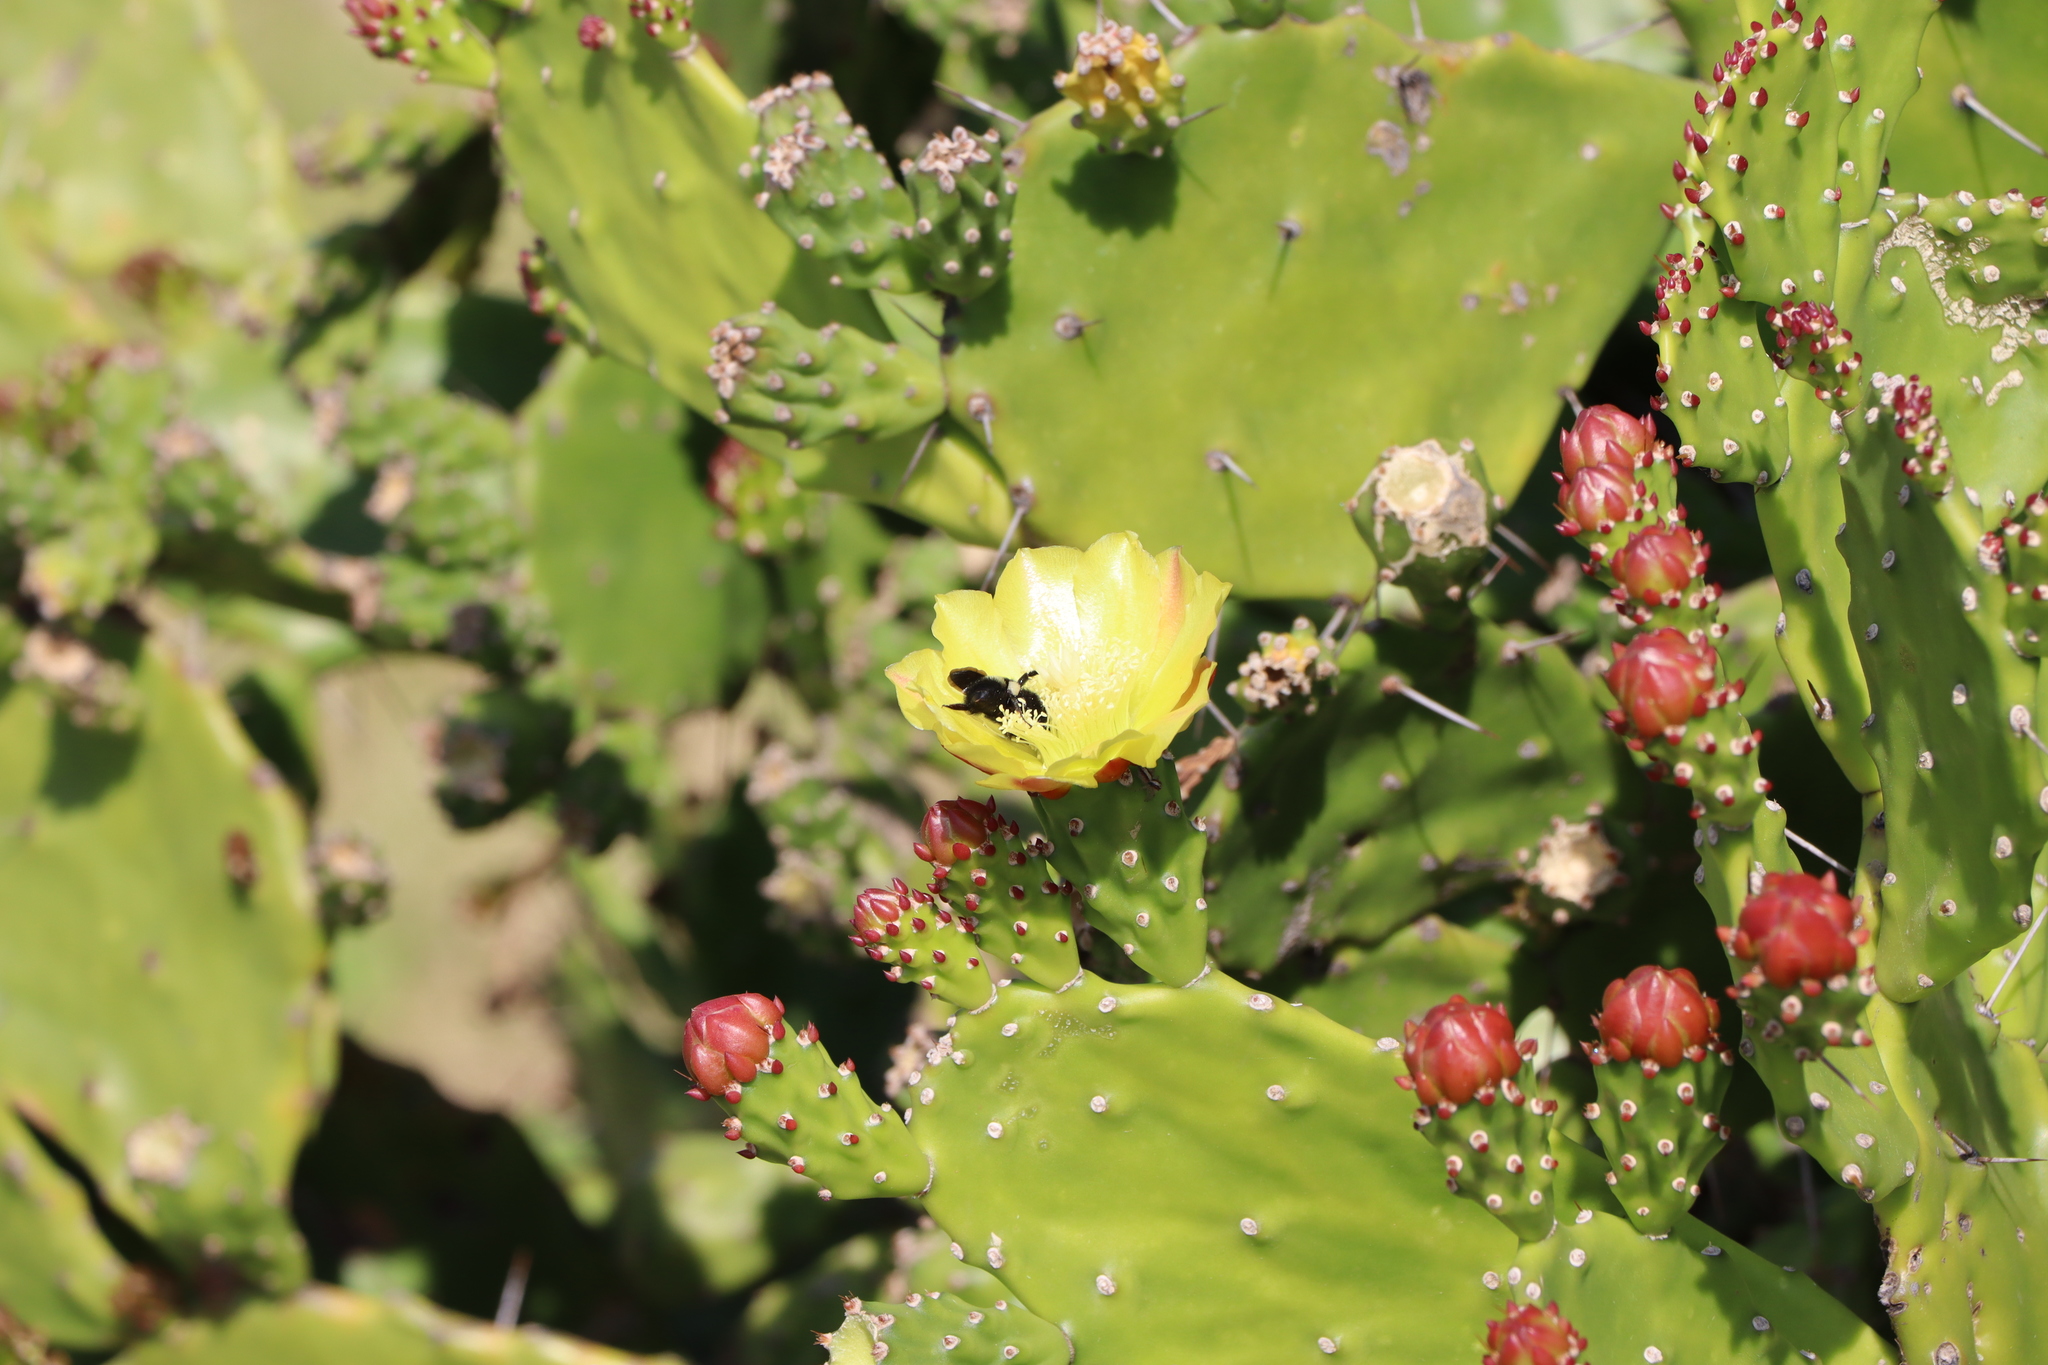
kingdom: Animalia
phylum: Arthropoda
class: Insecta
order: Hymenoptera
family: Apidae
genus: Bombus
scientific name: Bombus pauloensis
